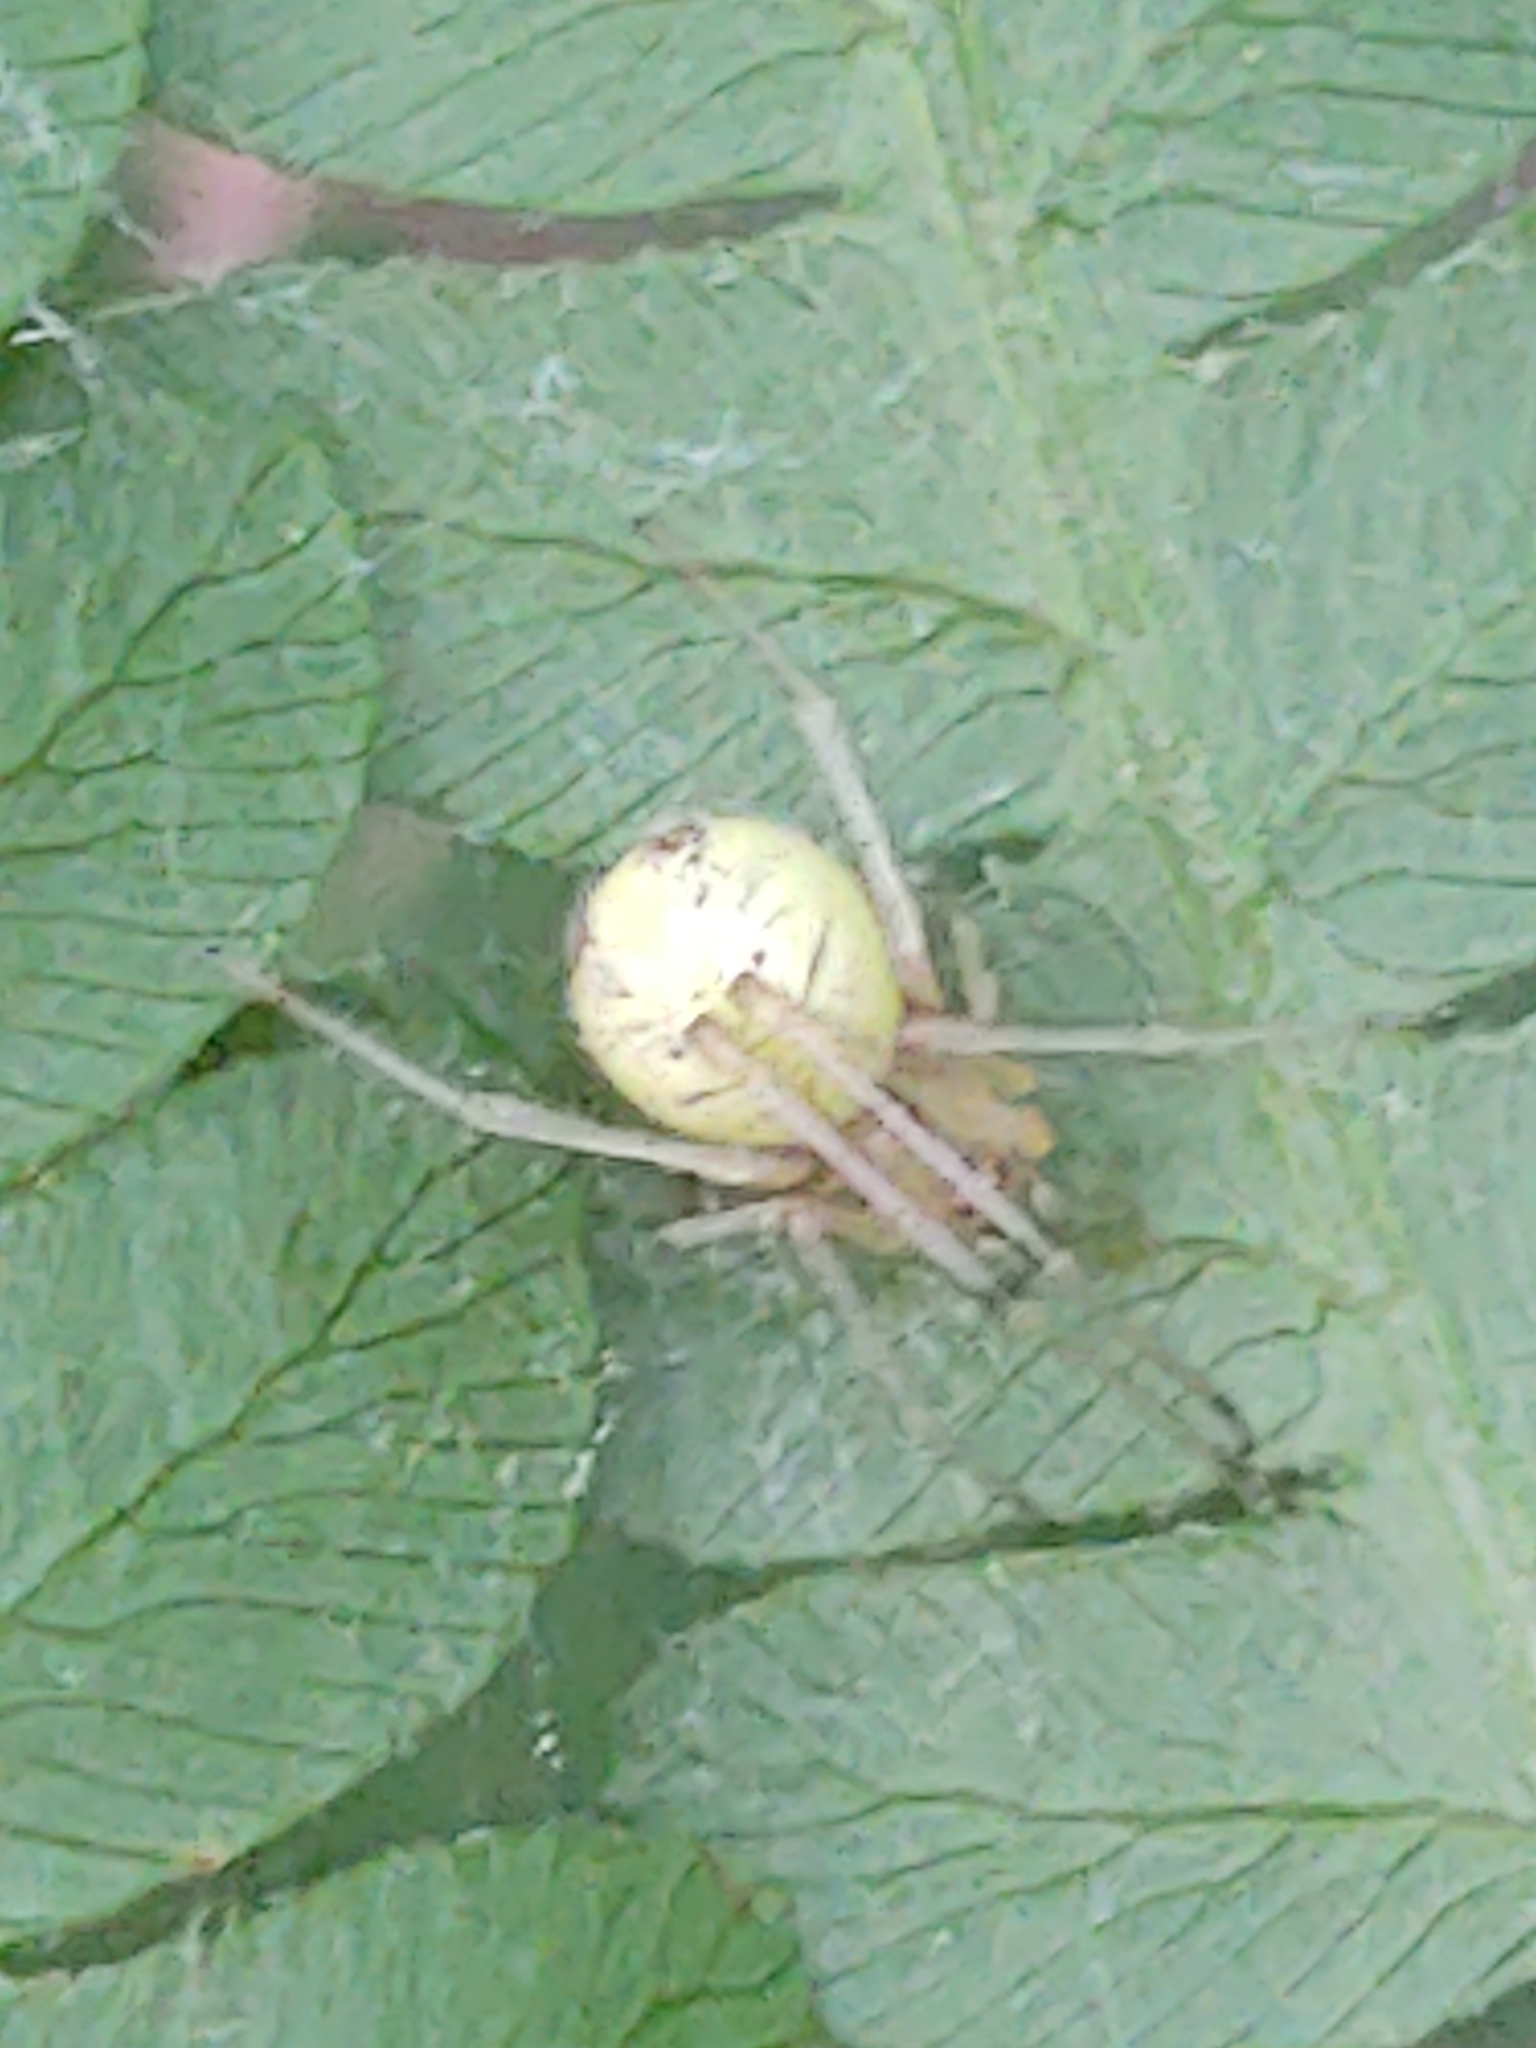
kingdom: Animalia
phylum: Arthropoda
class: Arachnida
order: Araneae
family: Theridiidae
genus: Enoplognatha
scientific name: Enoplognatha ovata
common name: Common candy-striped spider
